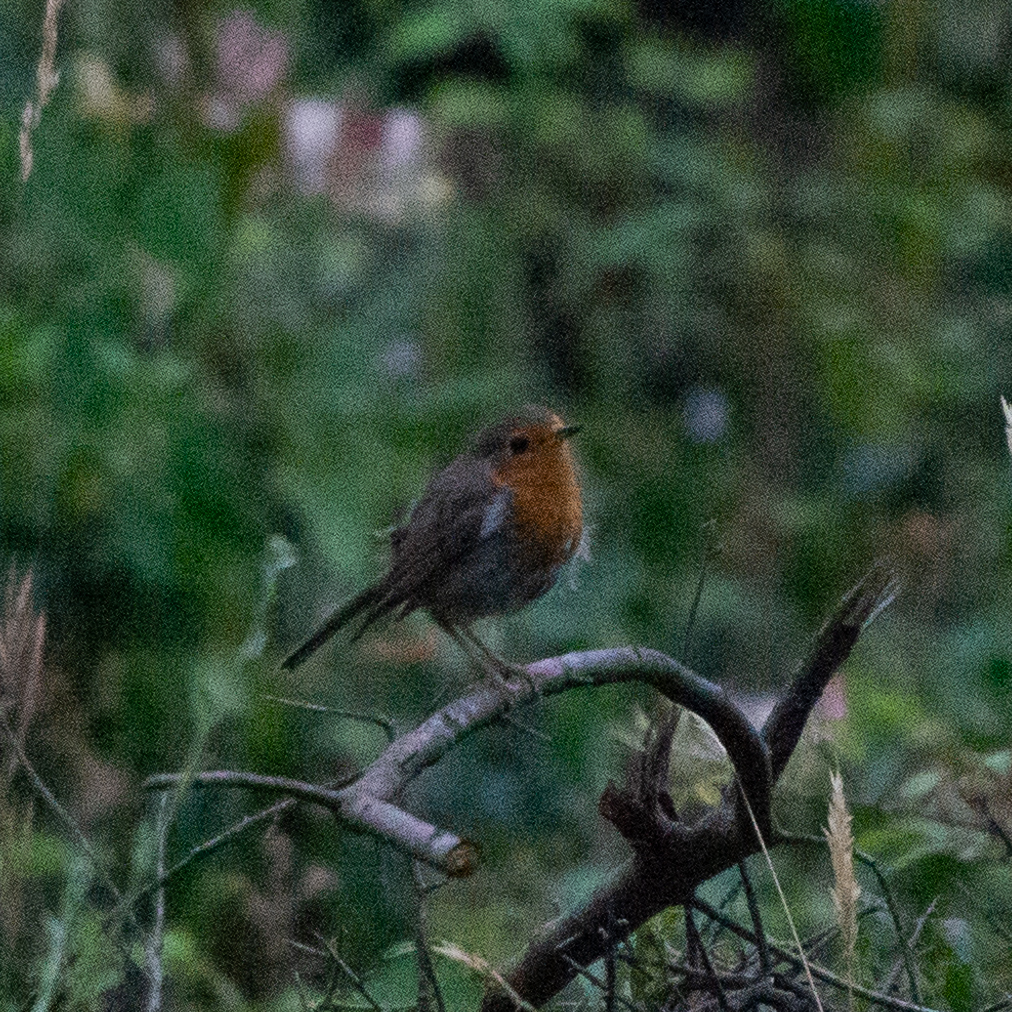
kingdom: Animalia
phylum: Chordata
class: Aves
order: Passeriformes
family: Muscicapidae
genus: Erithacus
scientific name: Erithacus rubecula
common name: European robin
